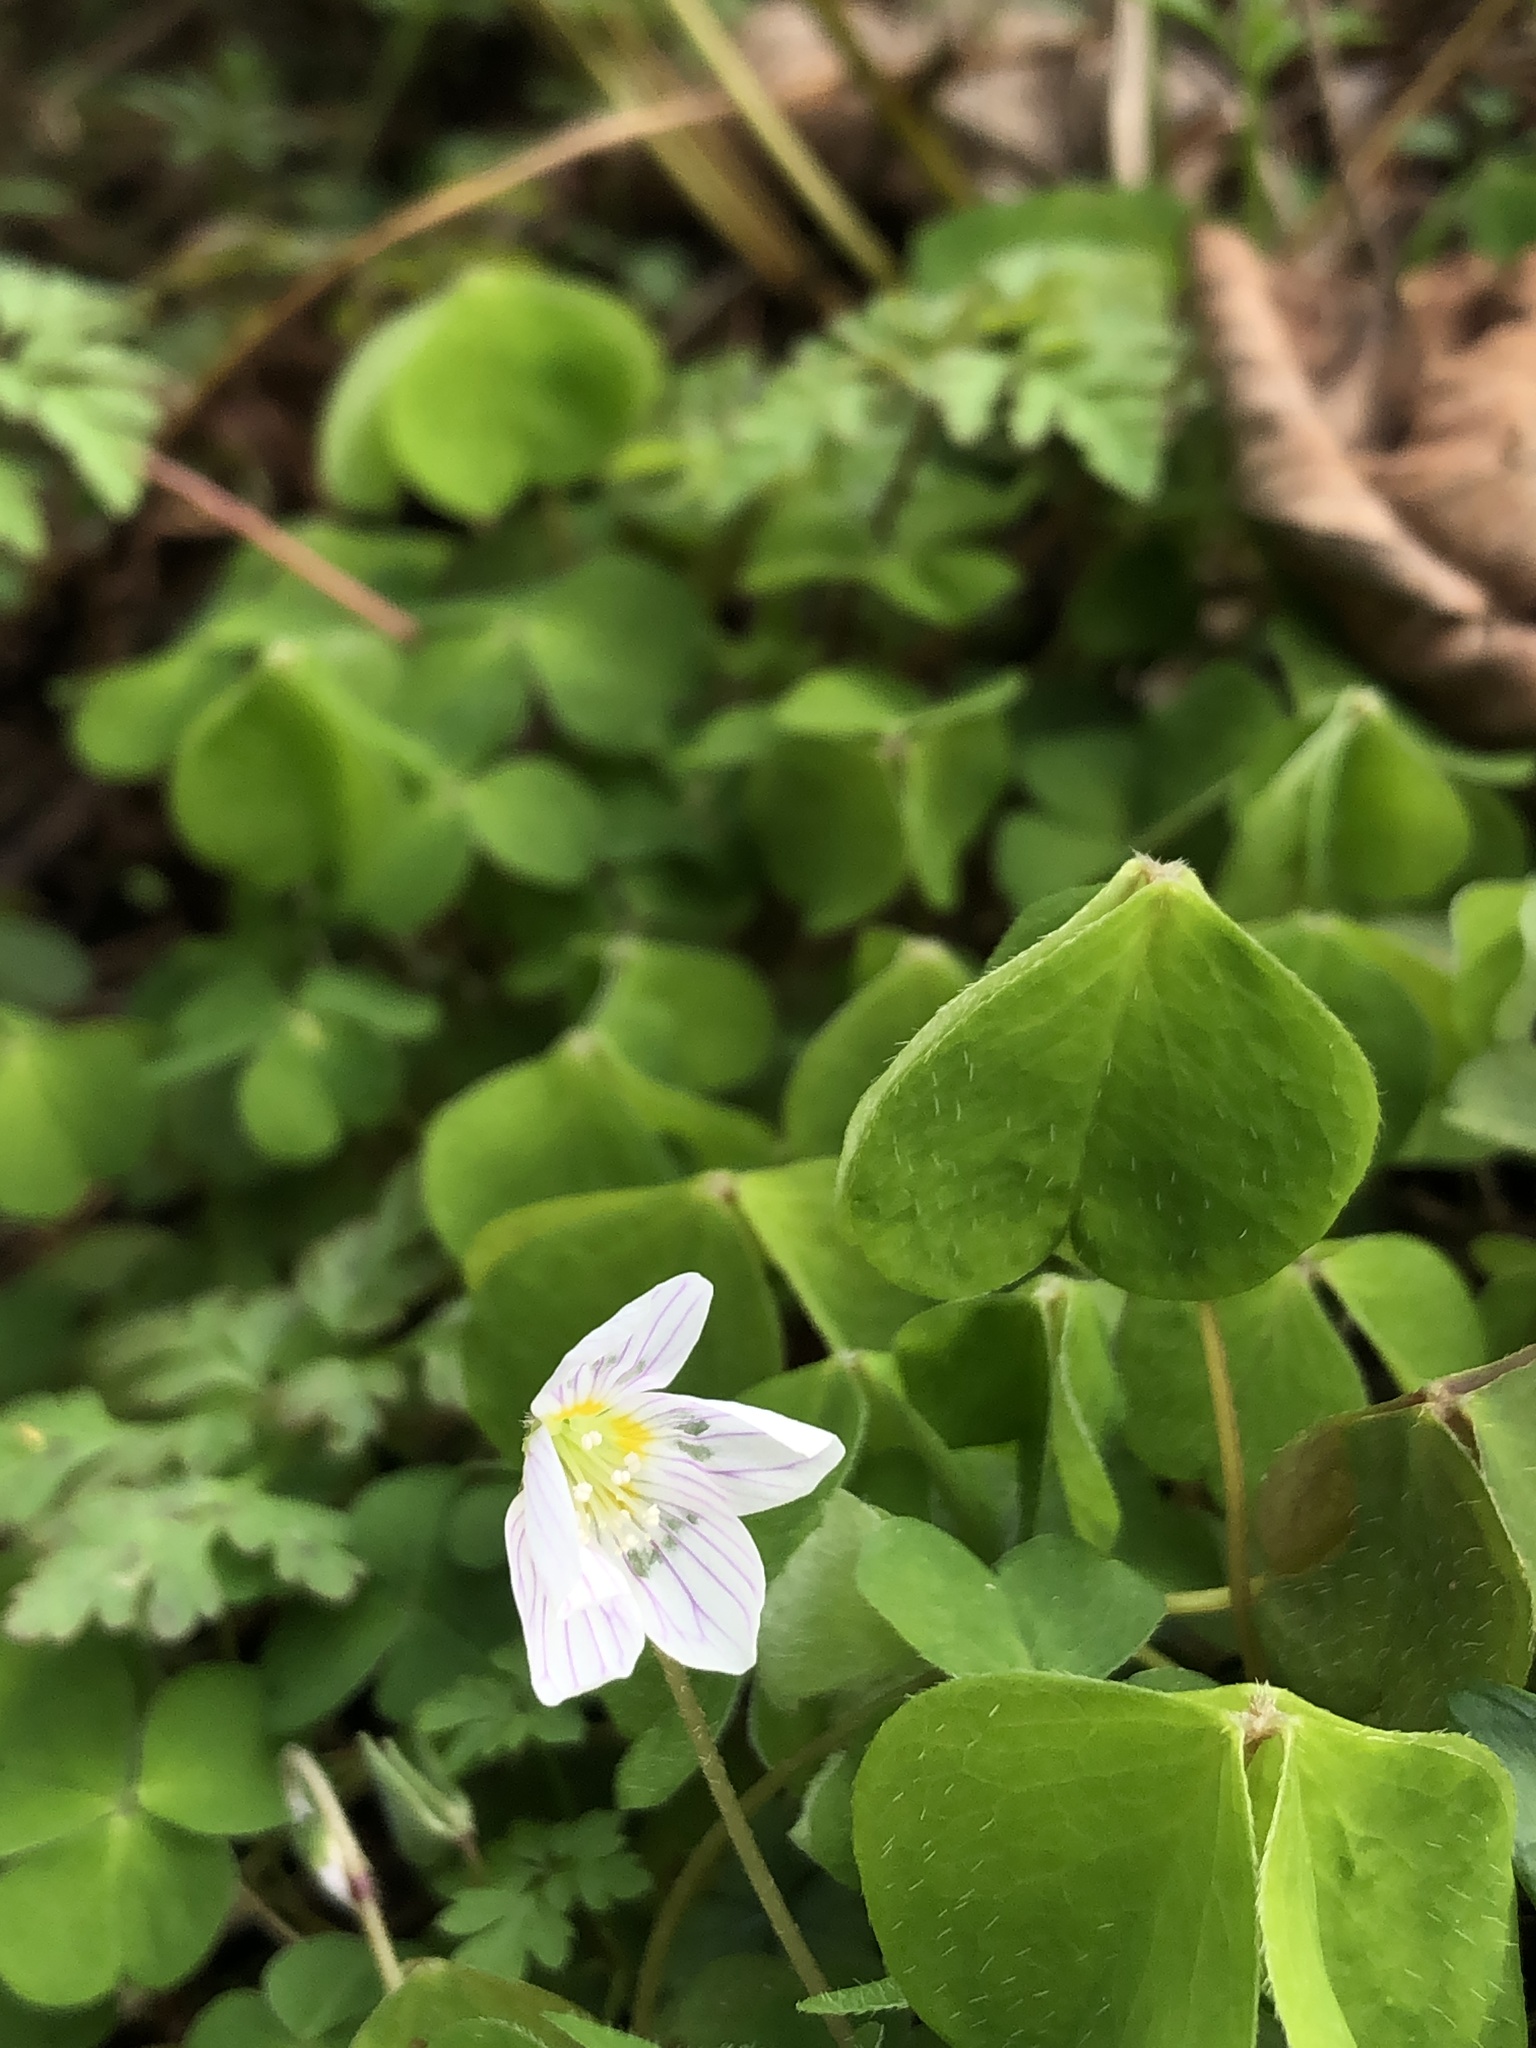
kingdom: Plantae
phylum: Tracheophyta
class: Magnoliopsida
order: Oxalidales
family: Oxalidaceae
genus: Oxalis
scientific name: Oxalis acetosella
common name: Wood-sorrel
